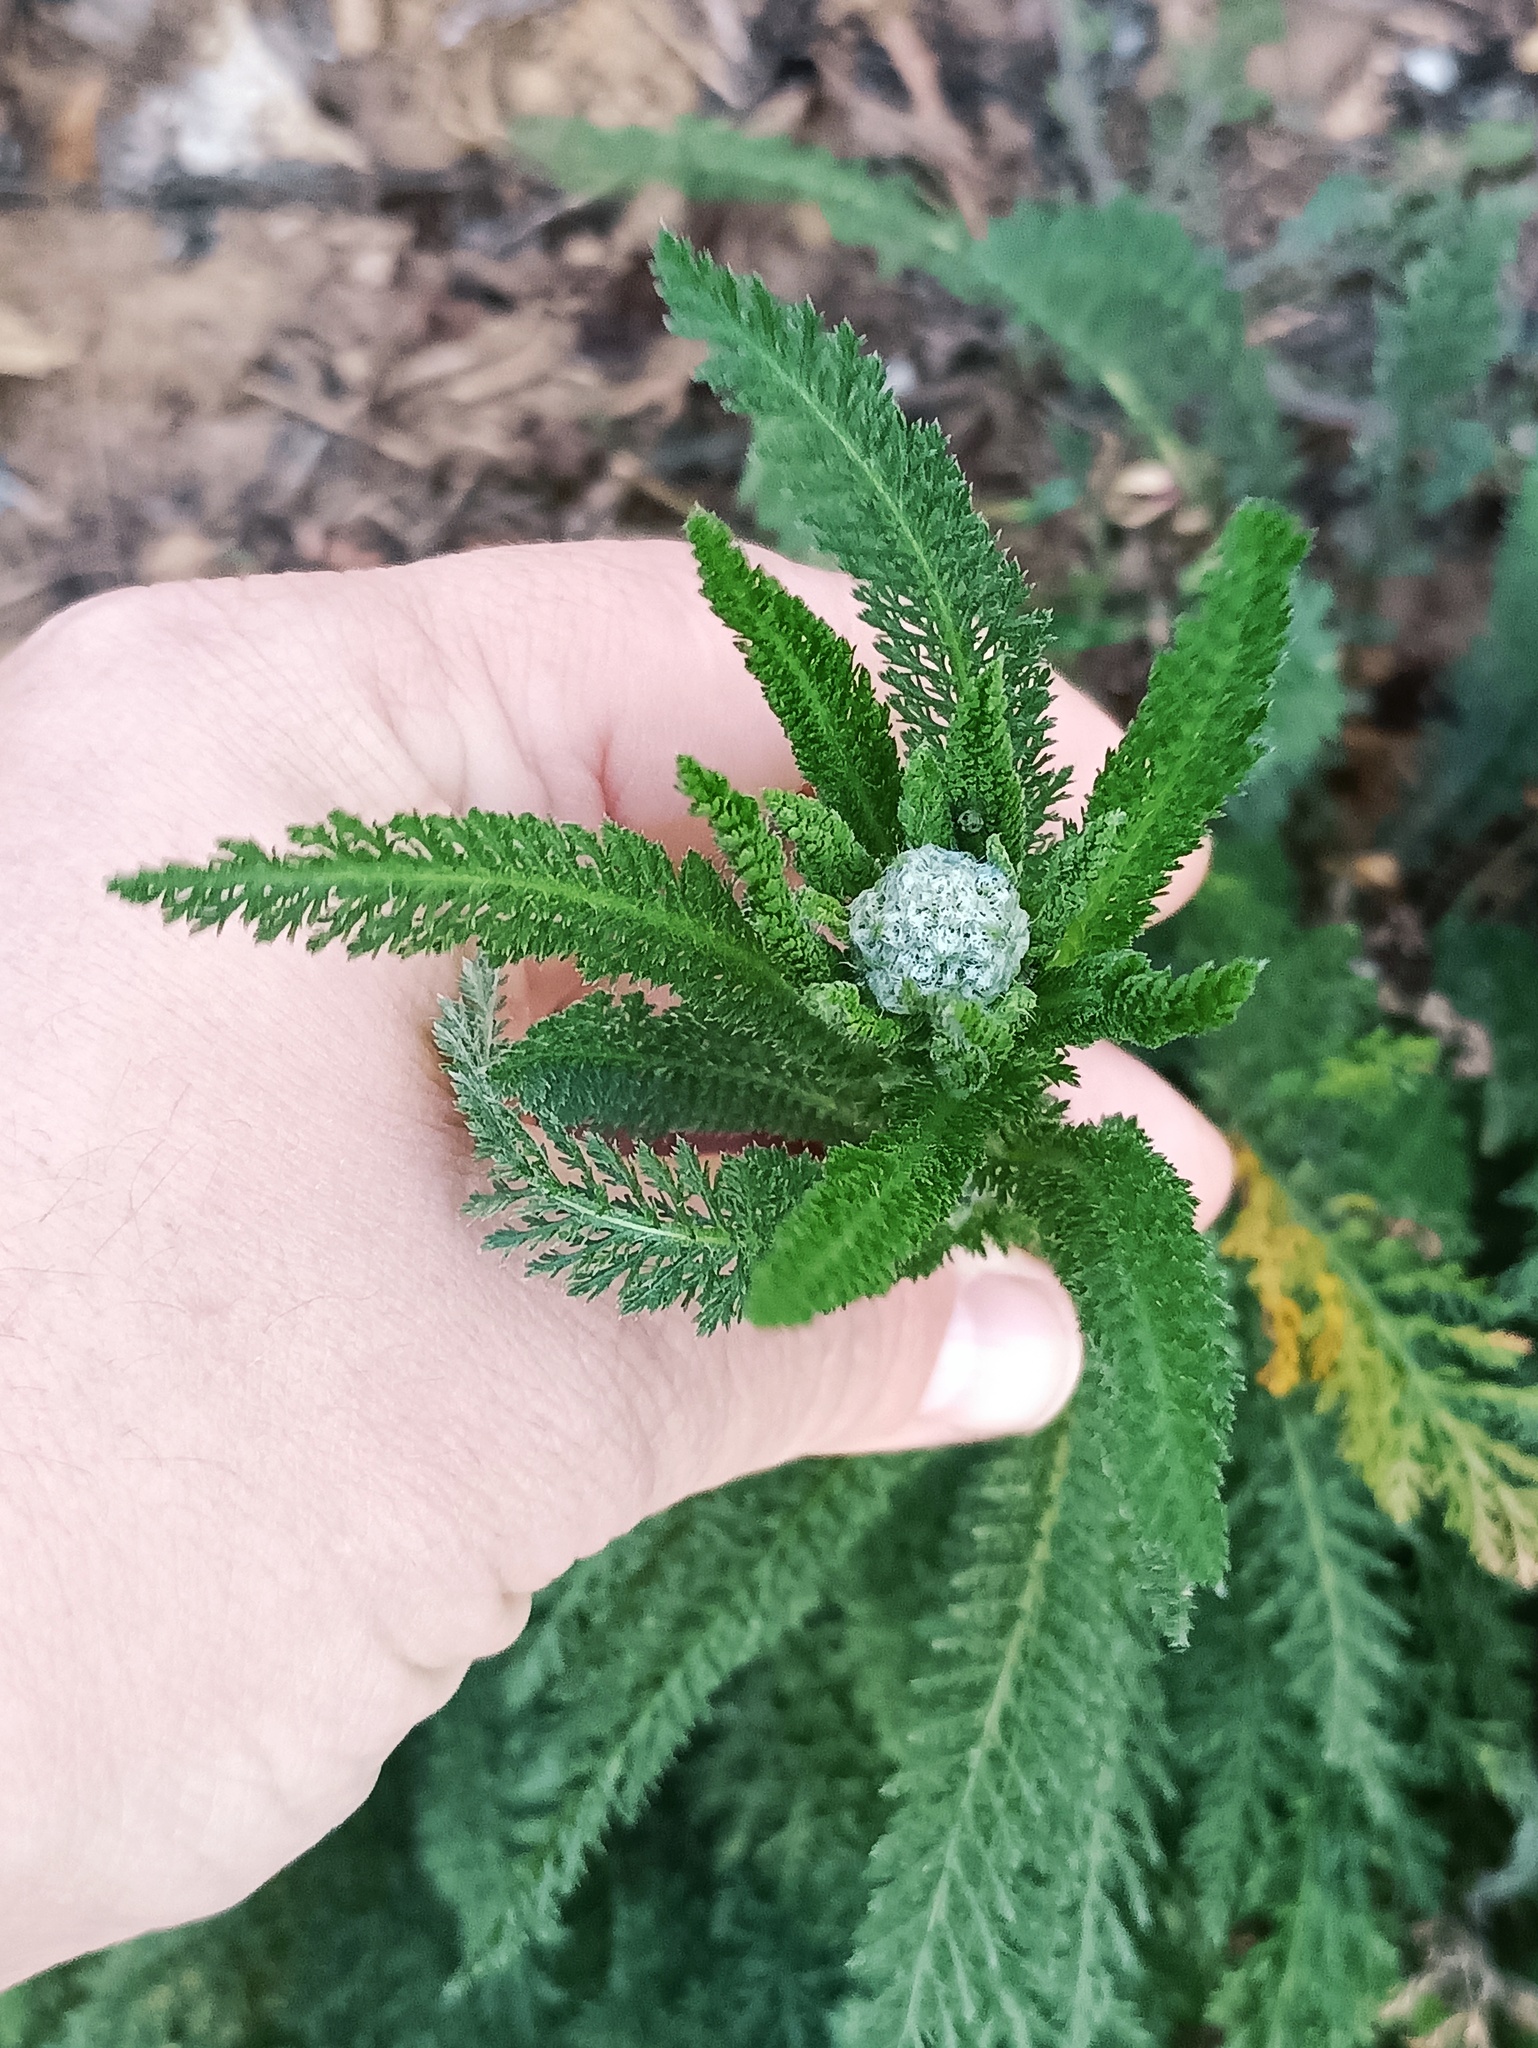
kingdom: Plantae
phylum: Tracheophyta
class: Magnoliopsida
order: Asterales
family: Asteraceae
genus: Achillea
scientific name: Achillea millefolium
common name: Yarrow
